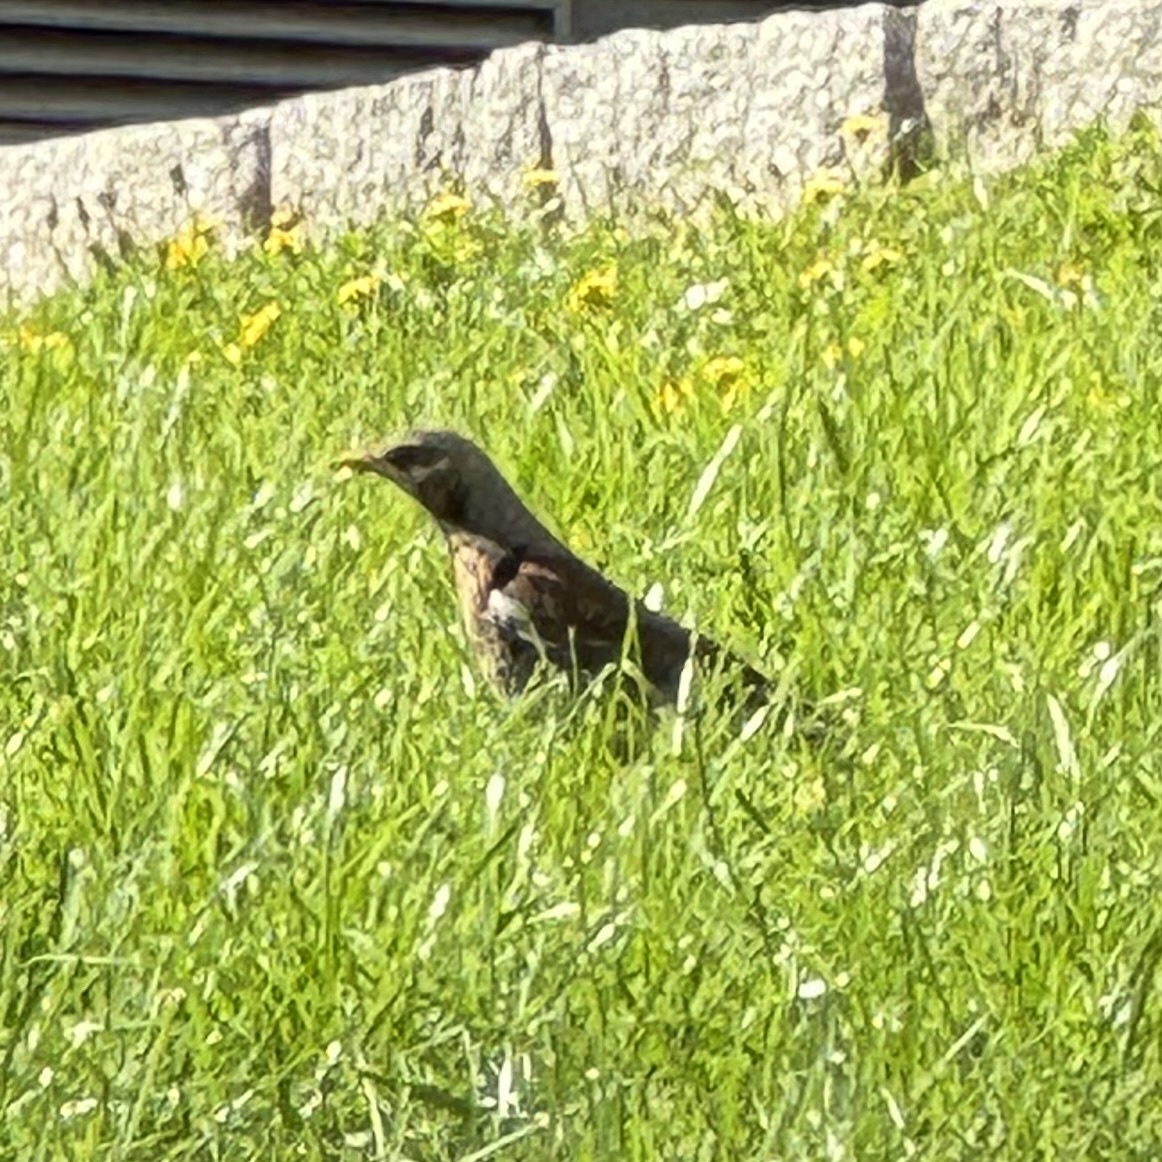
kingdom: Animalia
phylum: Chordata
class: Aves
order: Passeriformes
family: Turdidae
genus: Turdus
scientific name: Turdus pilaris
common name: Fieldfare
